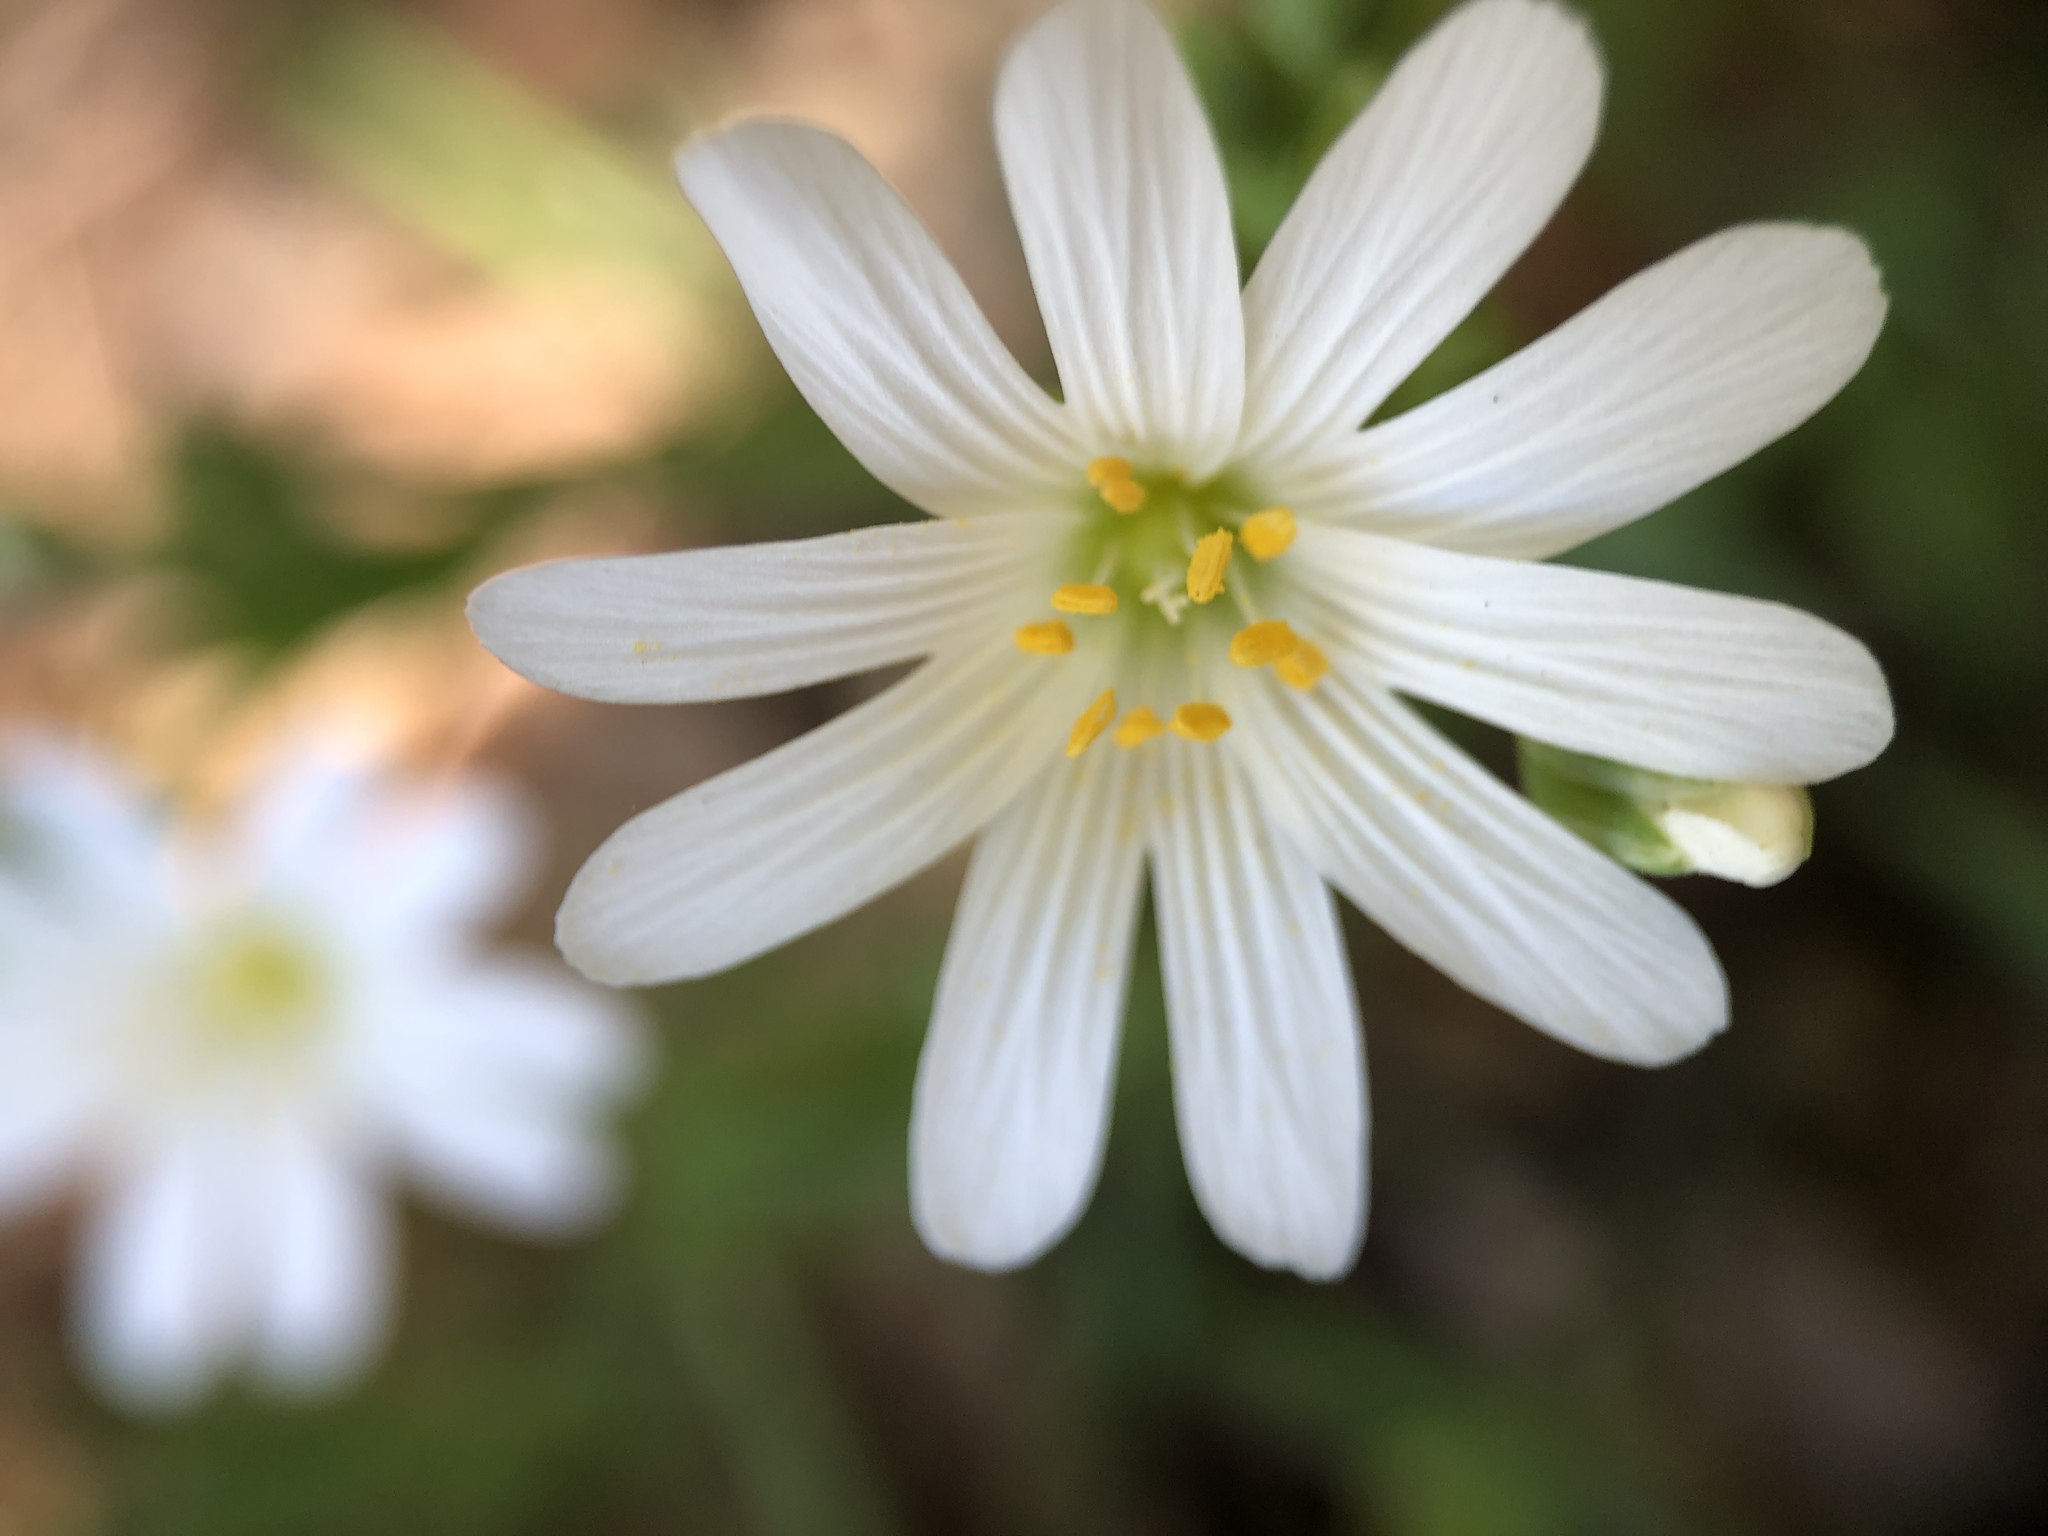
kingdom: Plantae
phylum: Tracheophyta
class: Magnoliopsida
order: Caryophyllales
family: Caryophyllaceae
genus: Rabelera
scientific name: Rabelera holostea
